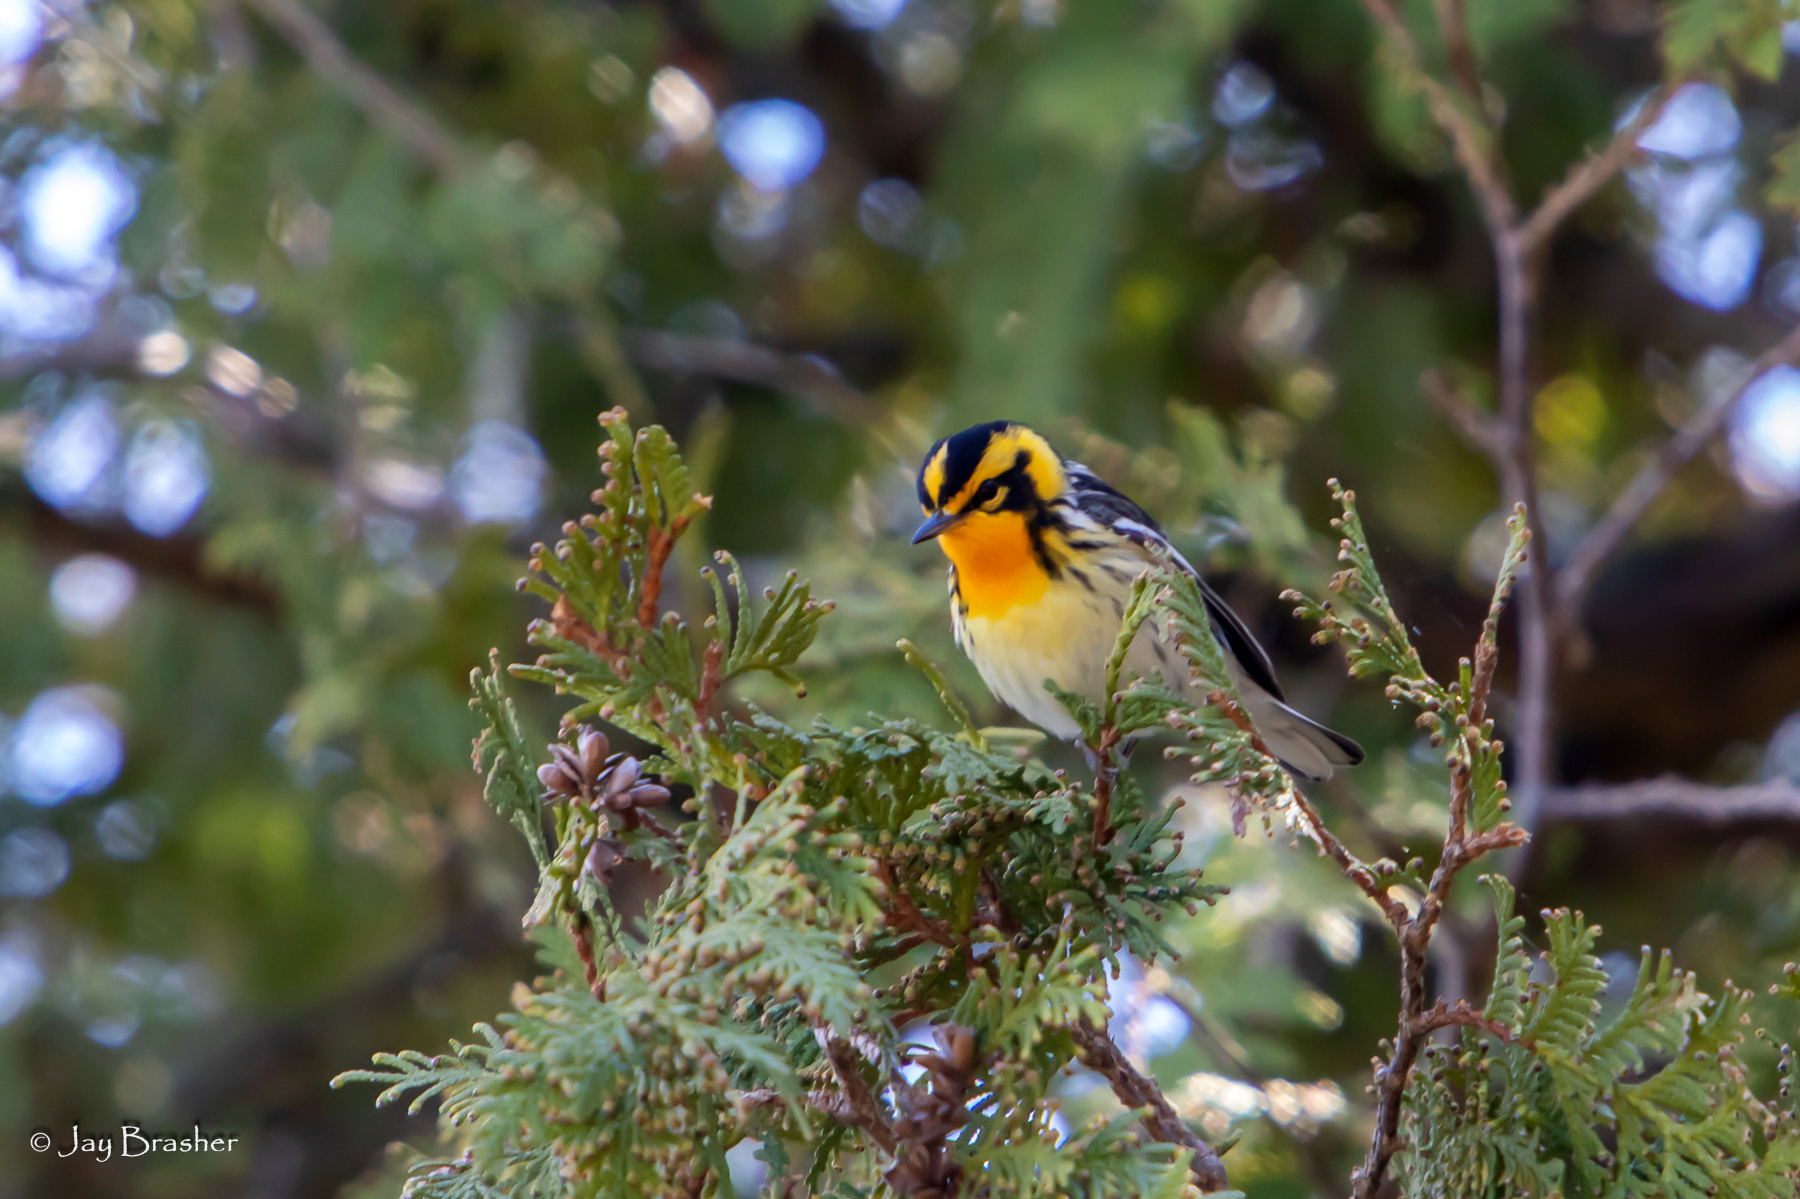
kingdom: Animalia
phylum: Chordata
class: Aves
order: Passeriformes
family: Parulidae
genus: Setophaga
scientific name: Setophaga fusca
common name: Blackburnian warbler
